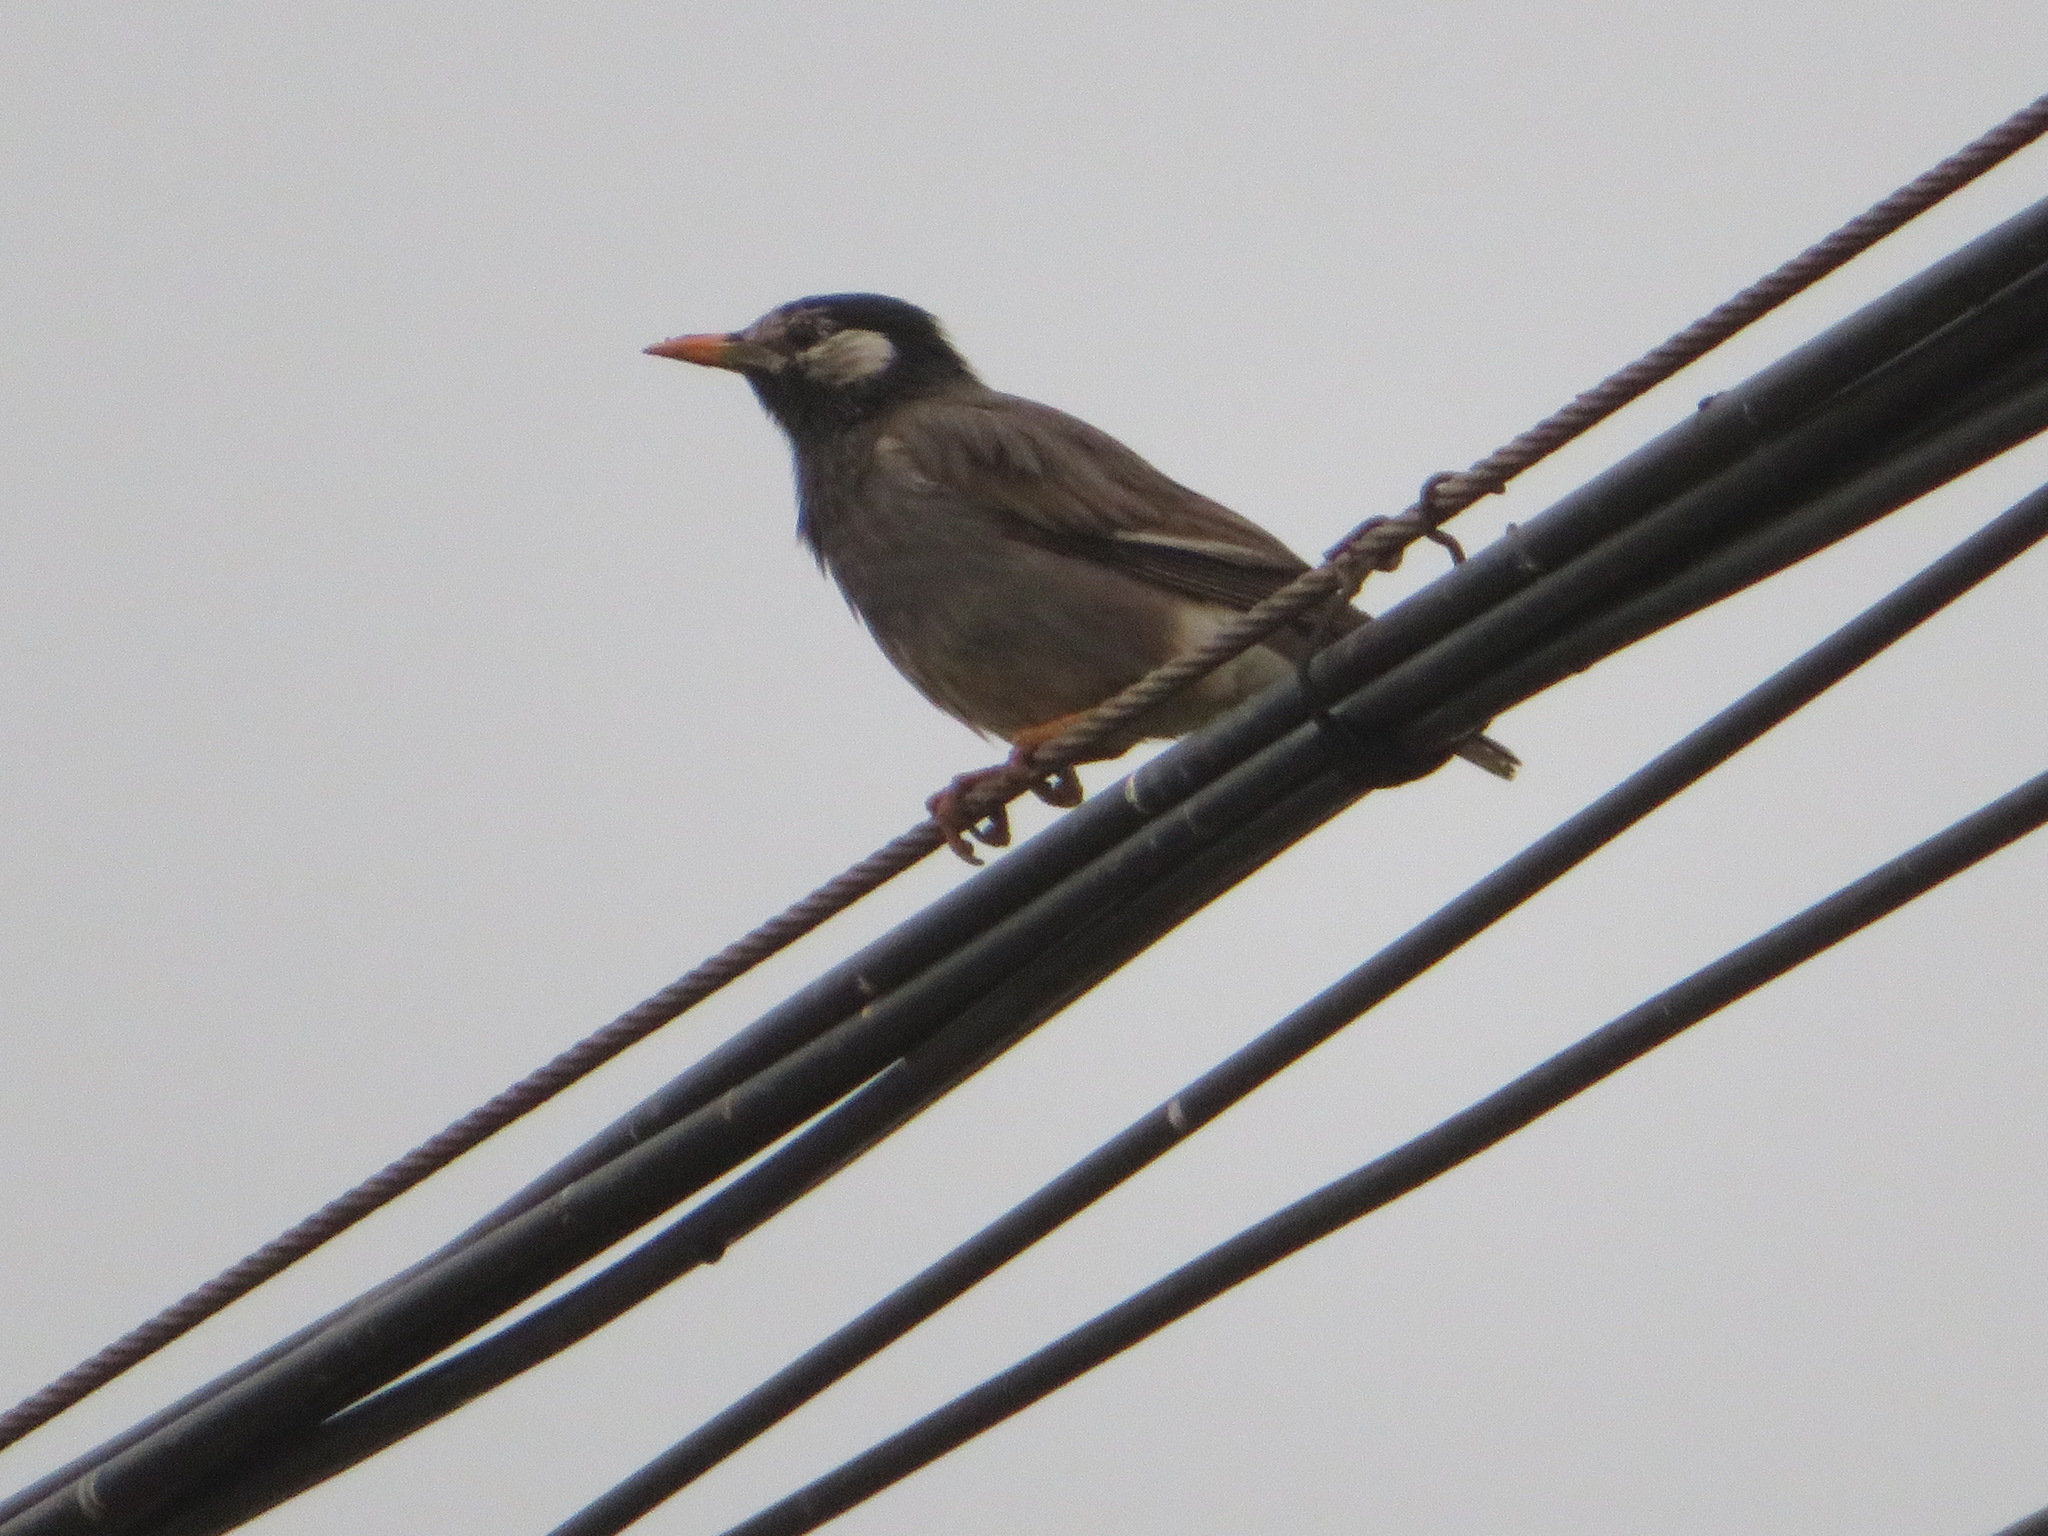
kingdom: Animalia
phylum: Chordata
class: Aves
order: Passeriformes
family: Sturnidae
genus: Spodiopsar
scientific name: Spodiopsar cineraceus
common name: White-cheeked starling
